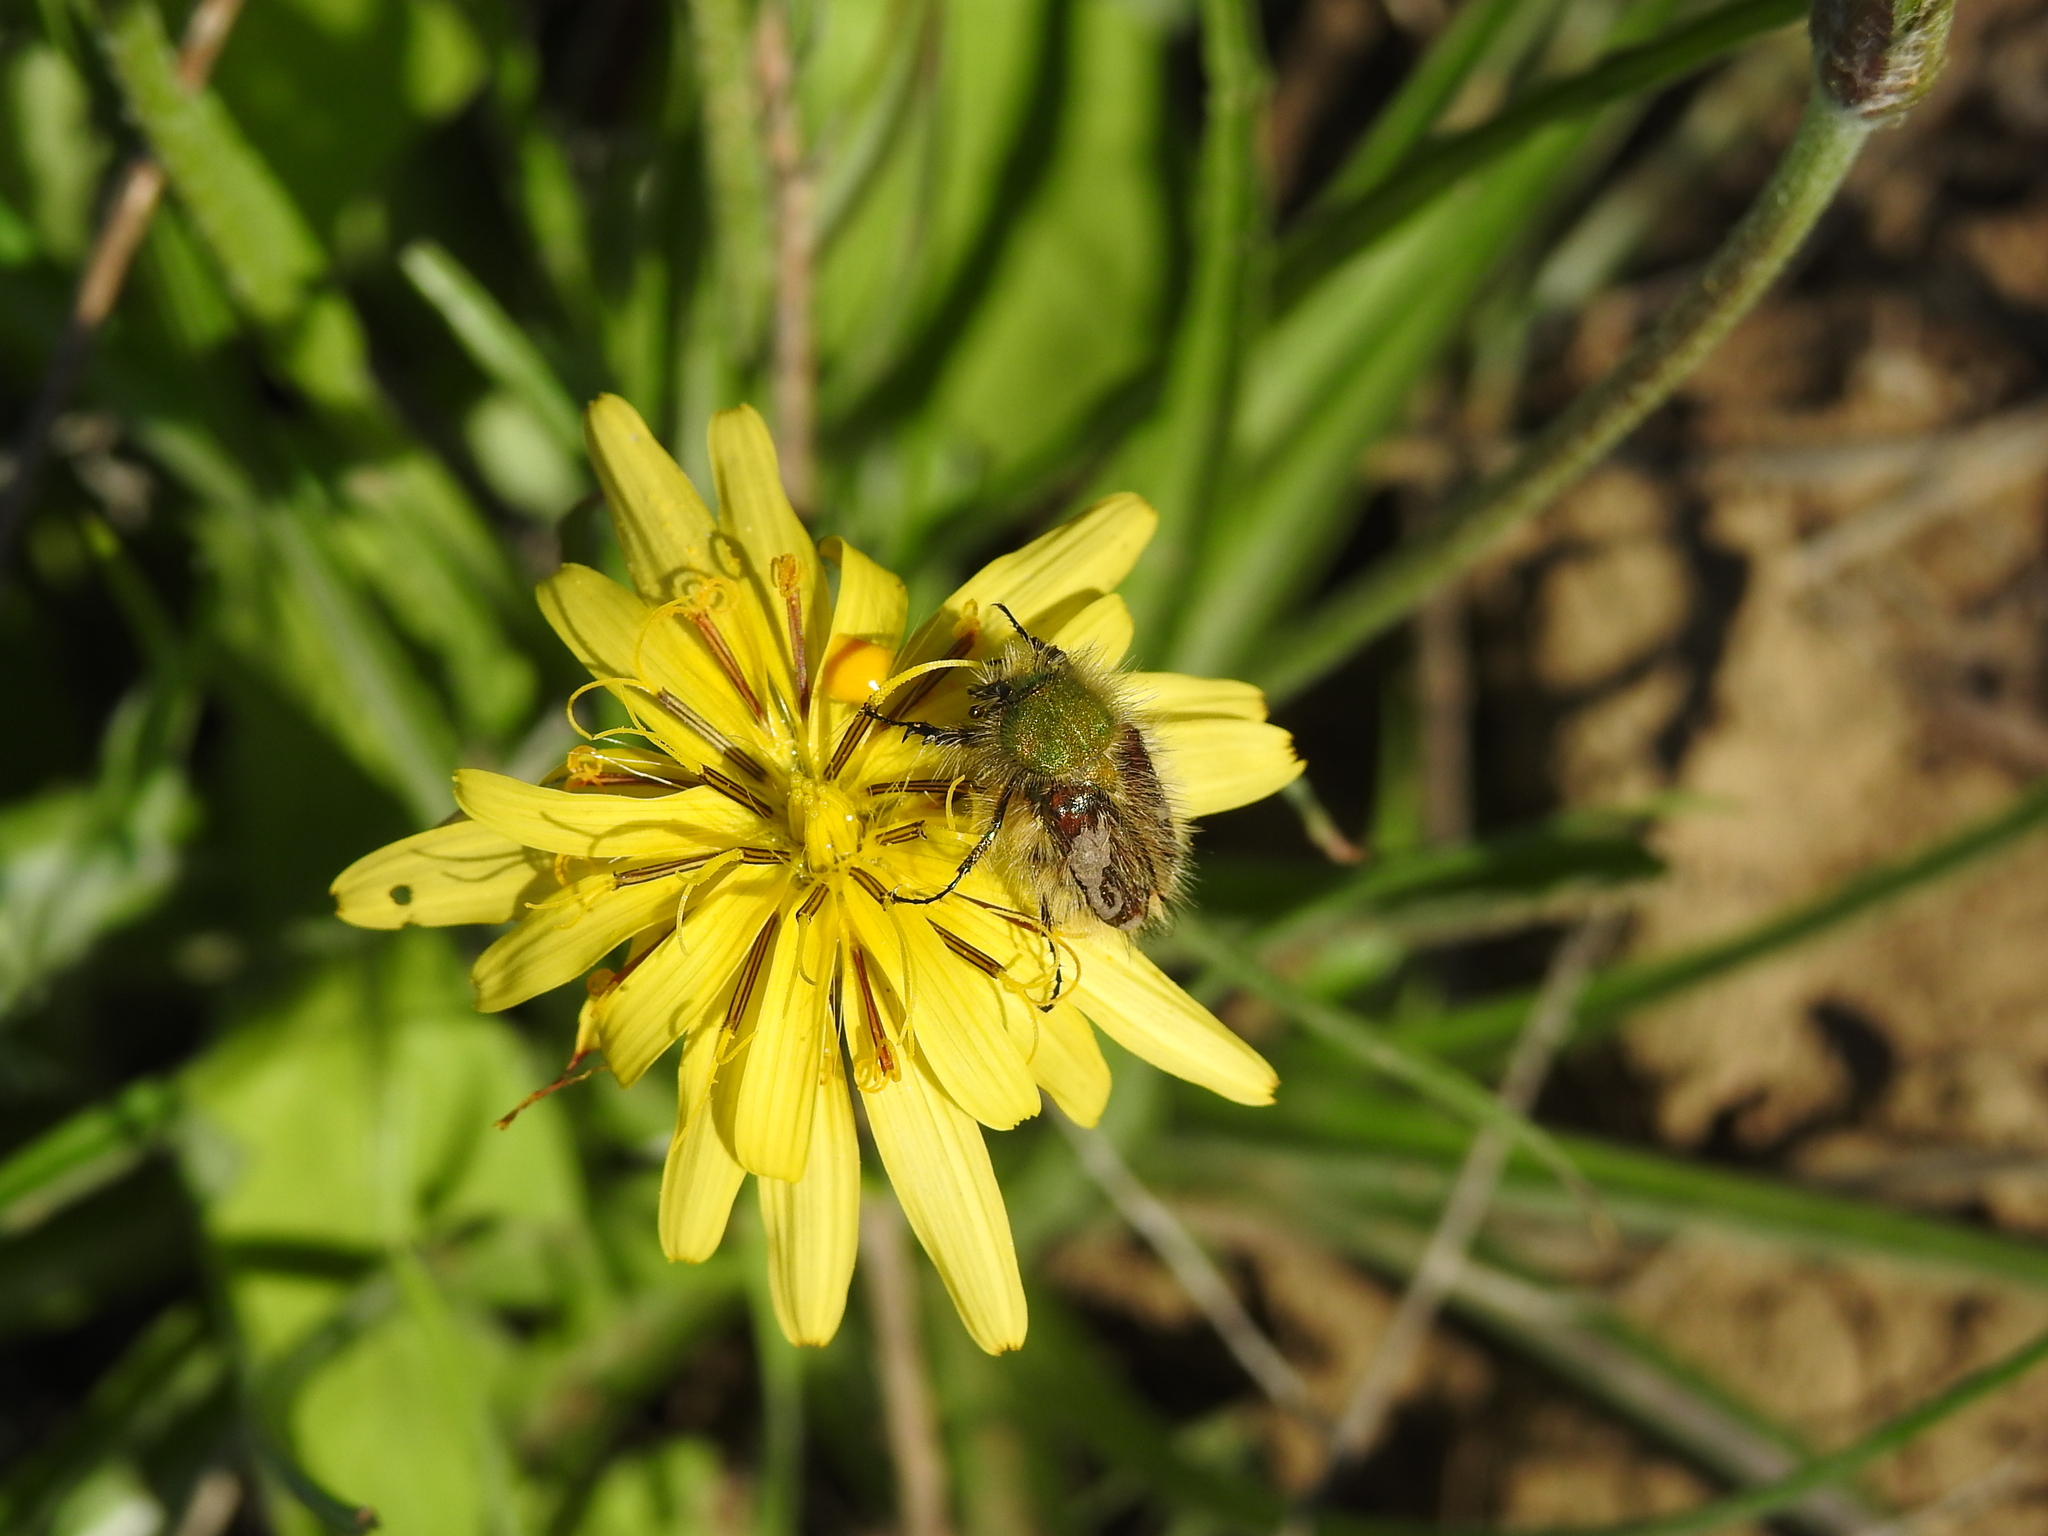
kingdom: Animalia
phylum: Arthropoda
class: Insecta
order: Coleoptera
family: Glaphyridae
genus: Pygopleurus
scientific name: Pygopleurus vulpes
